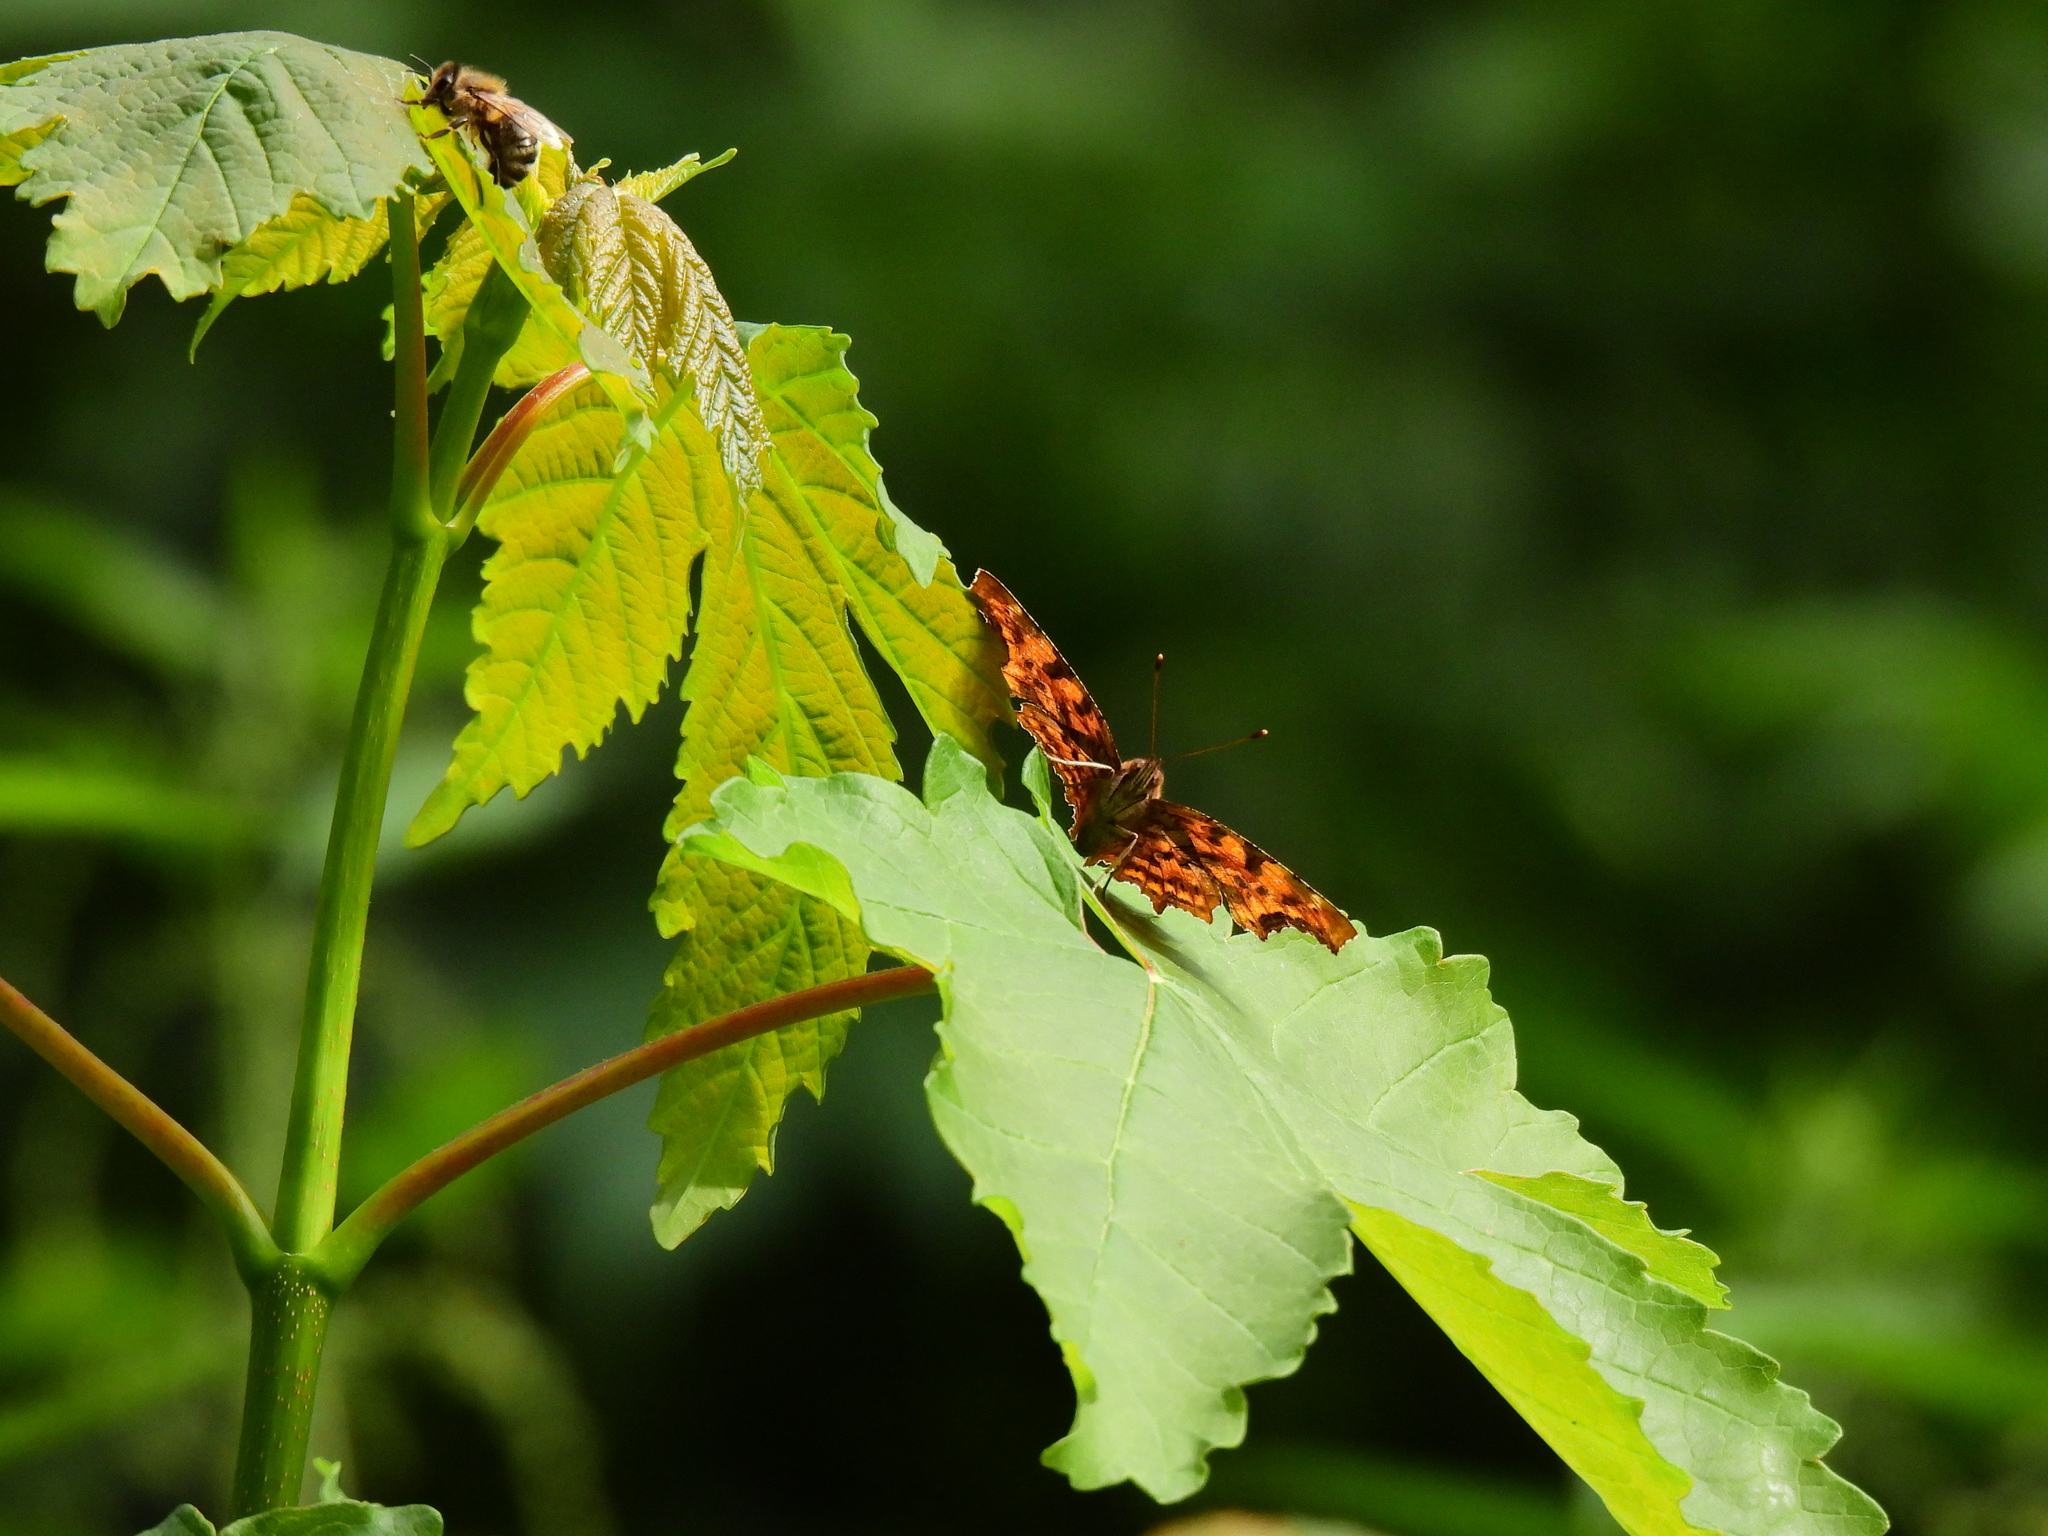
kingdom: Animalia
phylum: Arthropoda
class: Insecta
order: Lepidoptera
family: Nymphalidae
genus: Polygonia
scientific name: Polygonia c-album
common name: Comma
